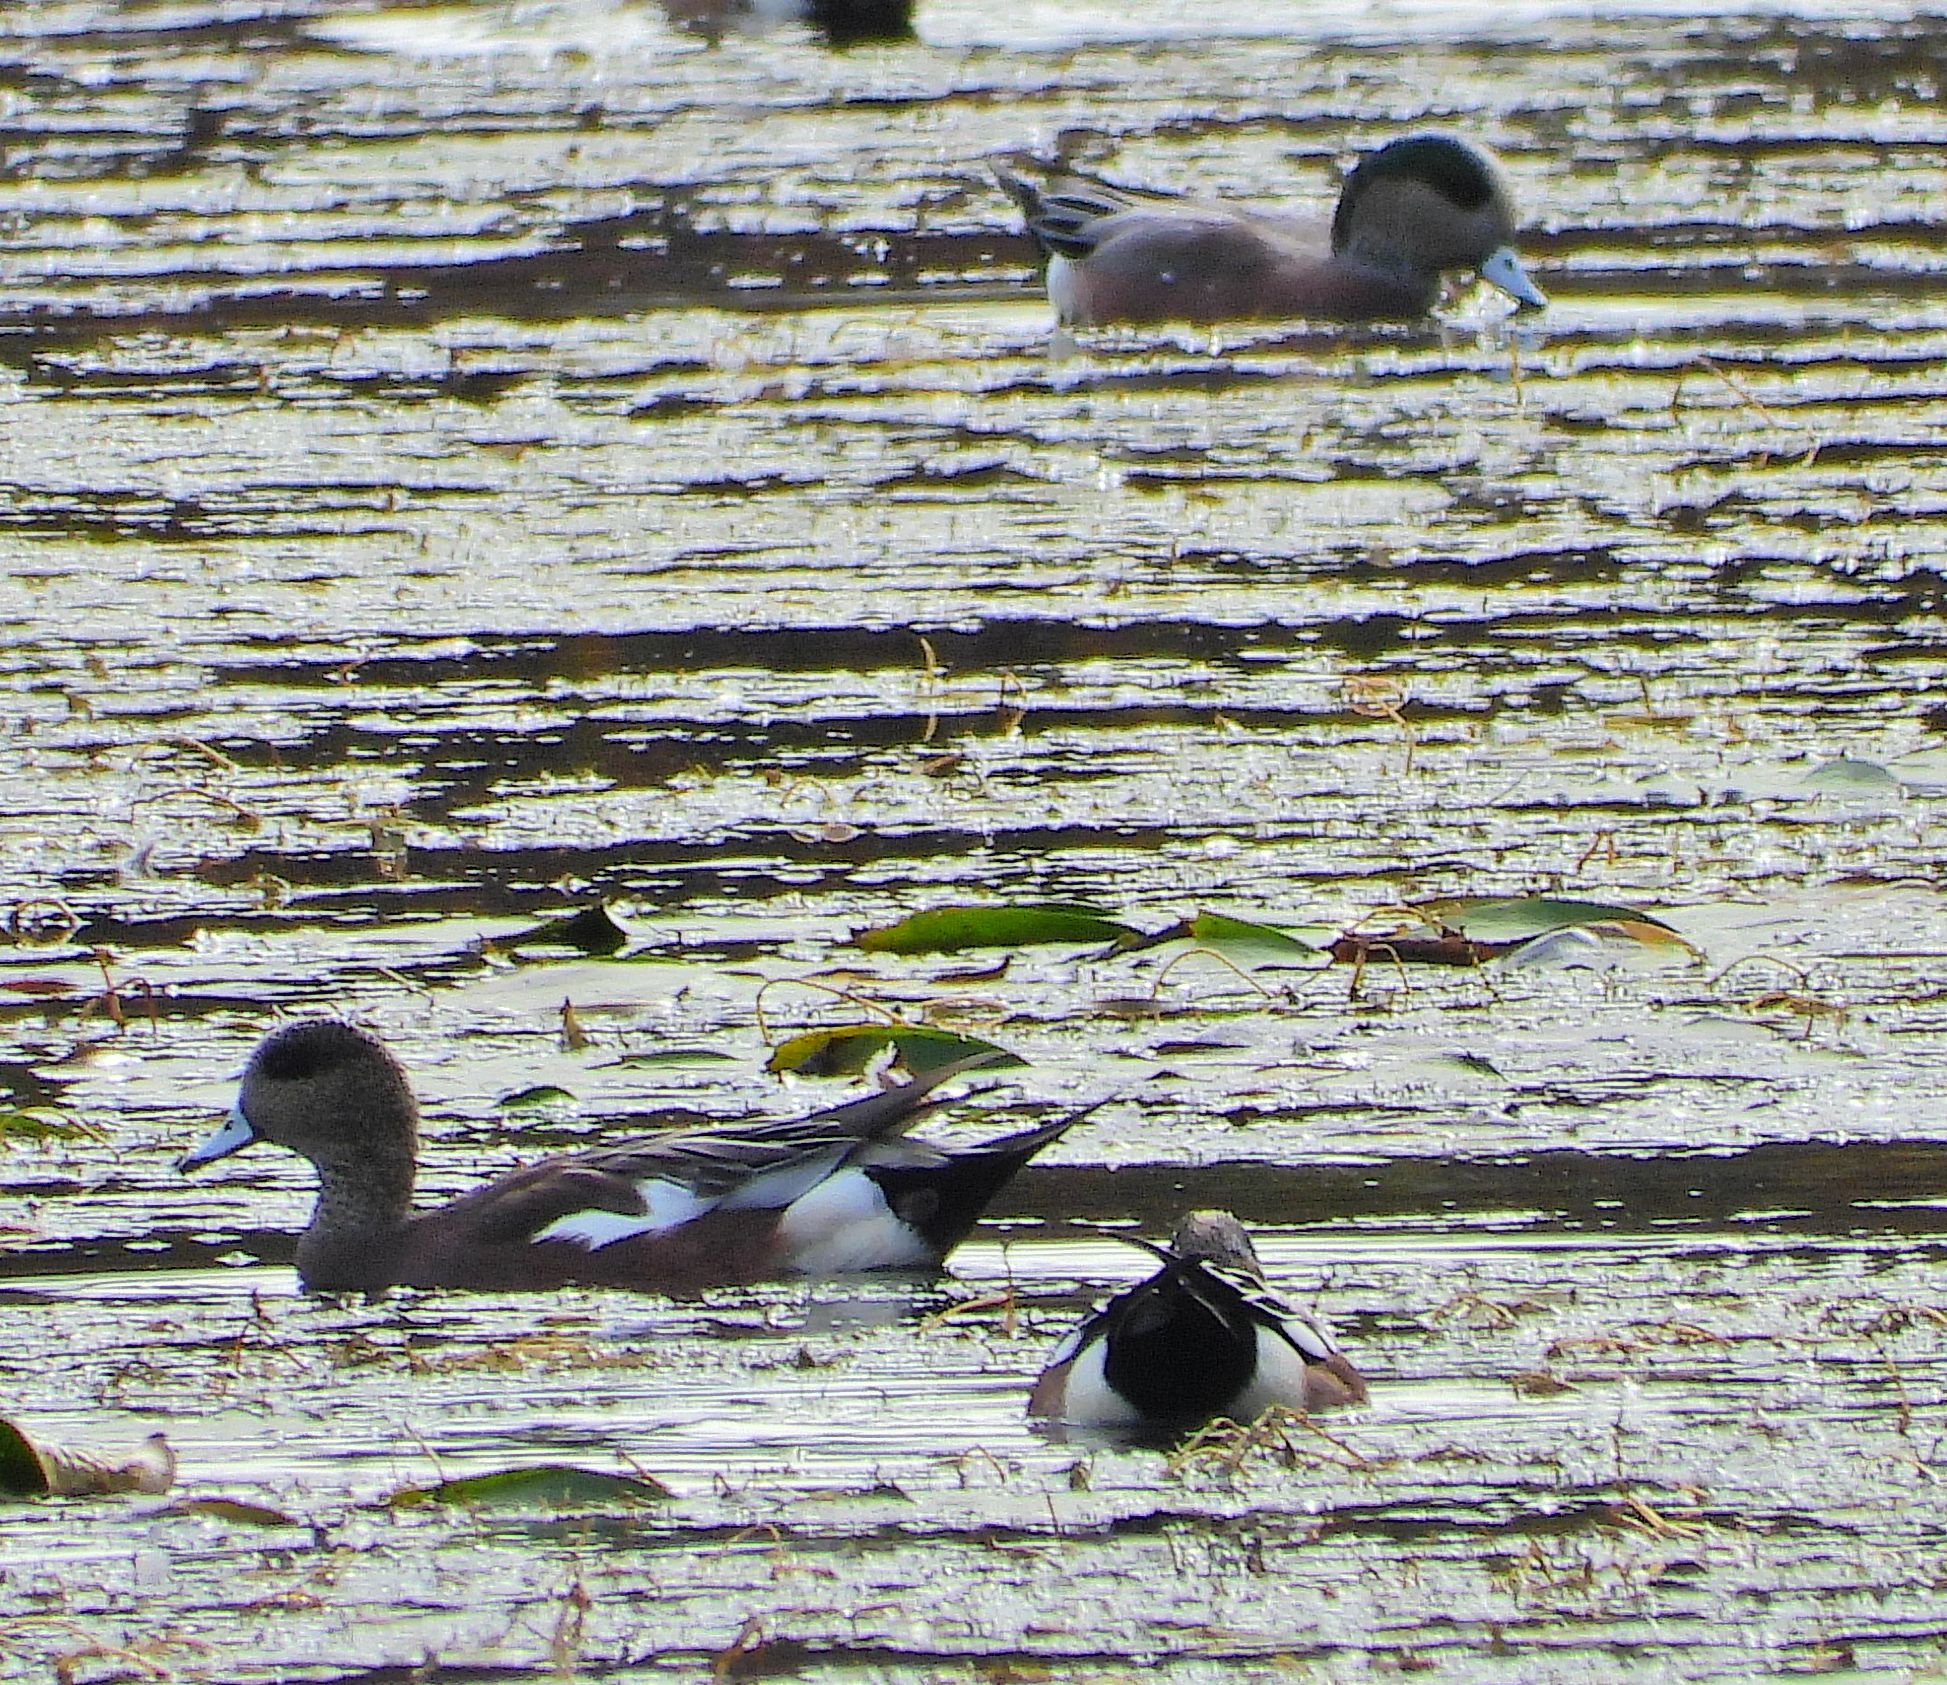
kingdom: Animalia
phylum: Chordata
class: Aves
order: Anseriformes
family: Anatidae
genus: Mareca
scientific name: Mareca americana
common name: American wigeon
